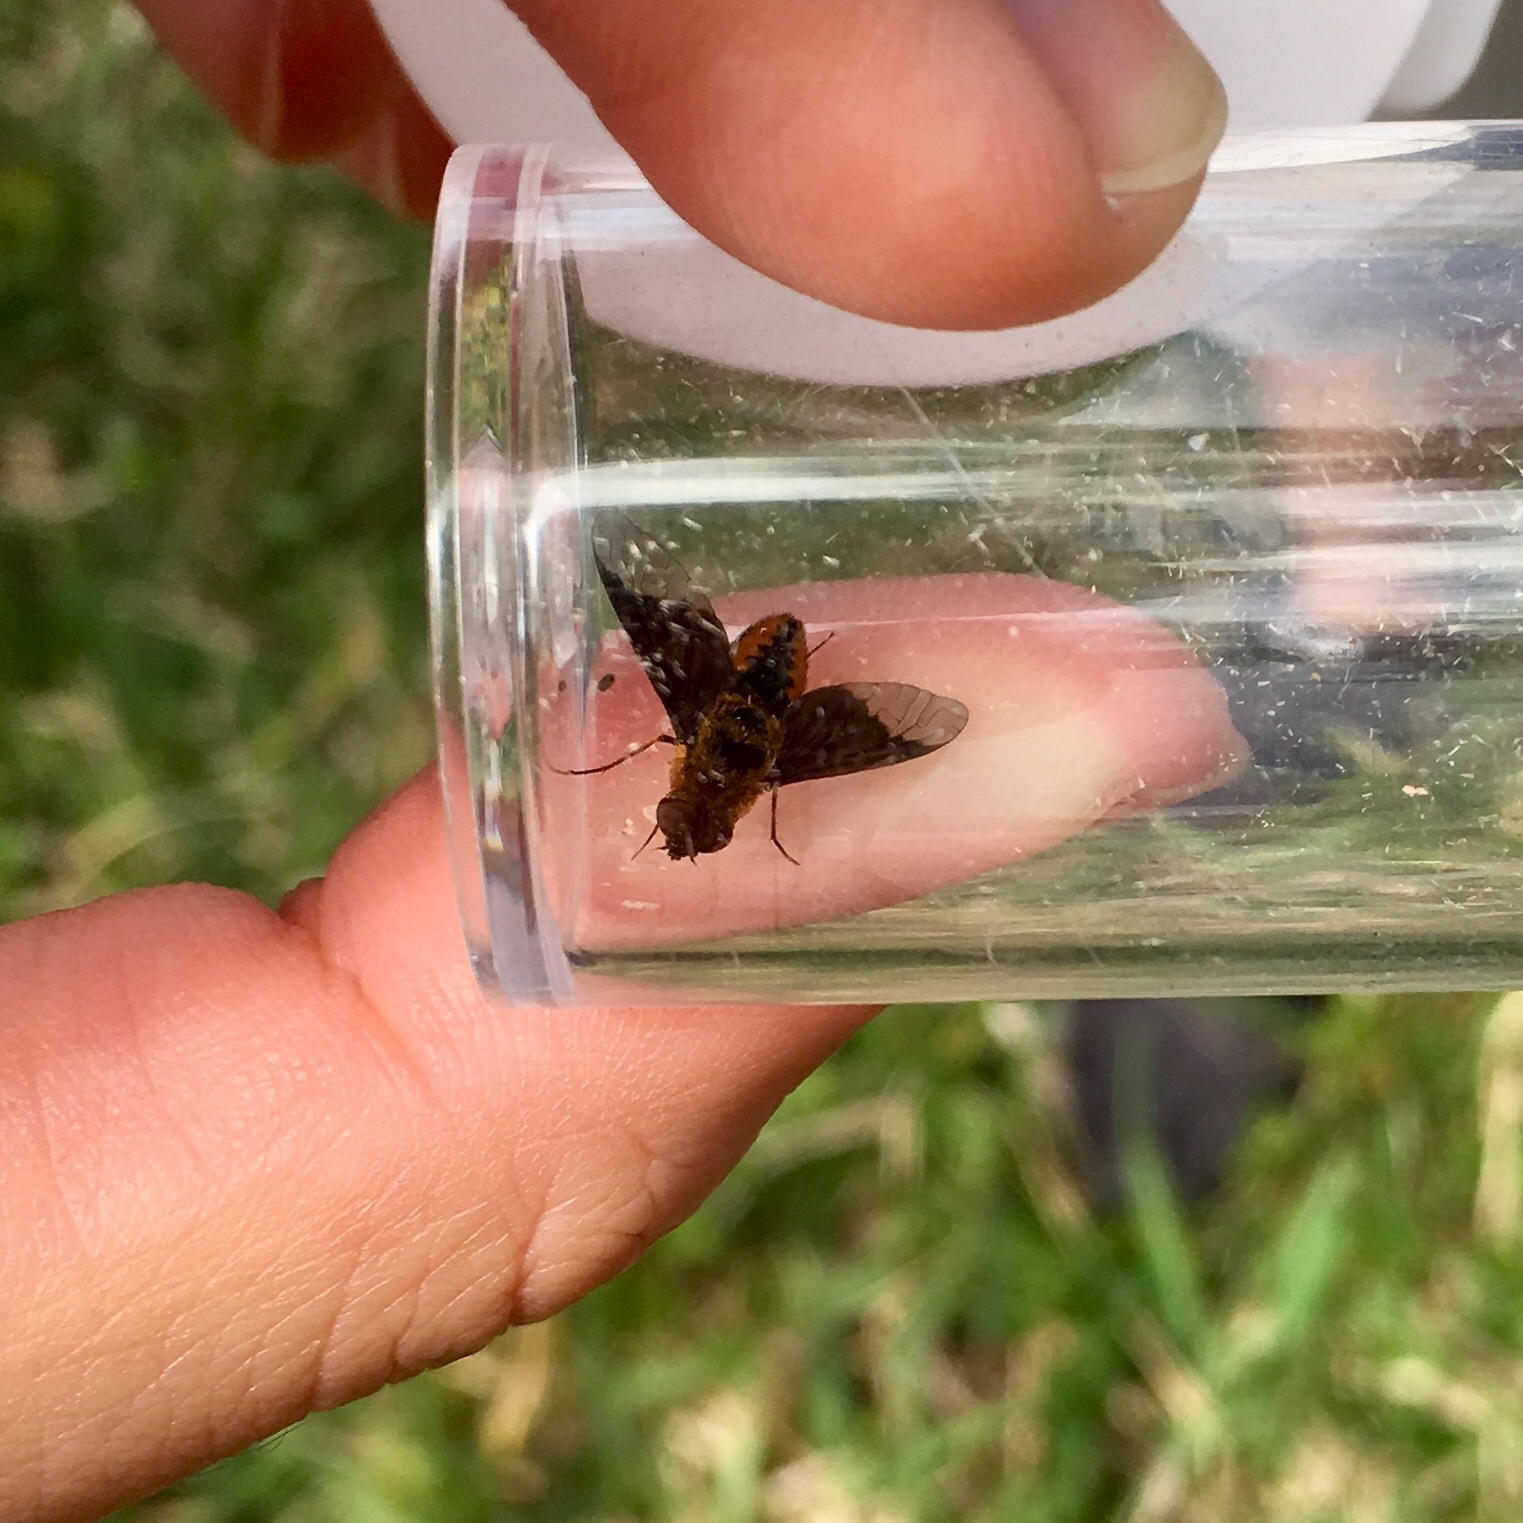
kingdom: Animalia
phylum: Arthropoda
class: Insecta
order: Diptera
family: Bombyliidae
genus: Chrysanthrax
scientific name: Chrysanthrax cypris
